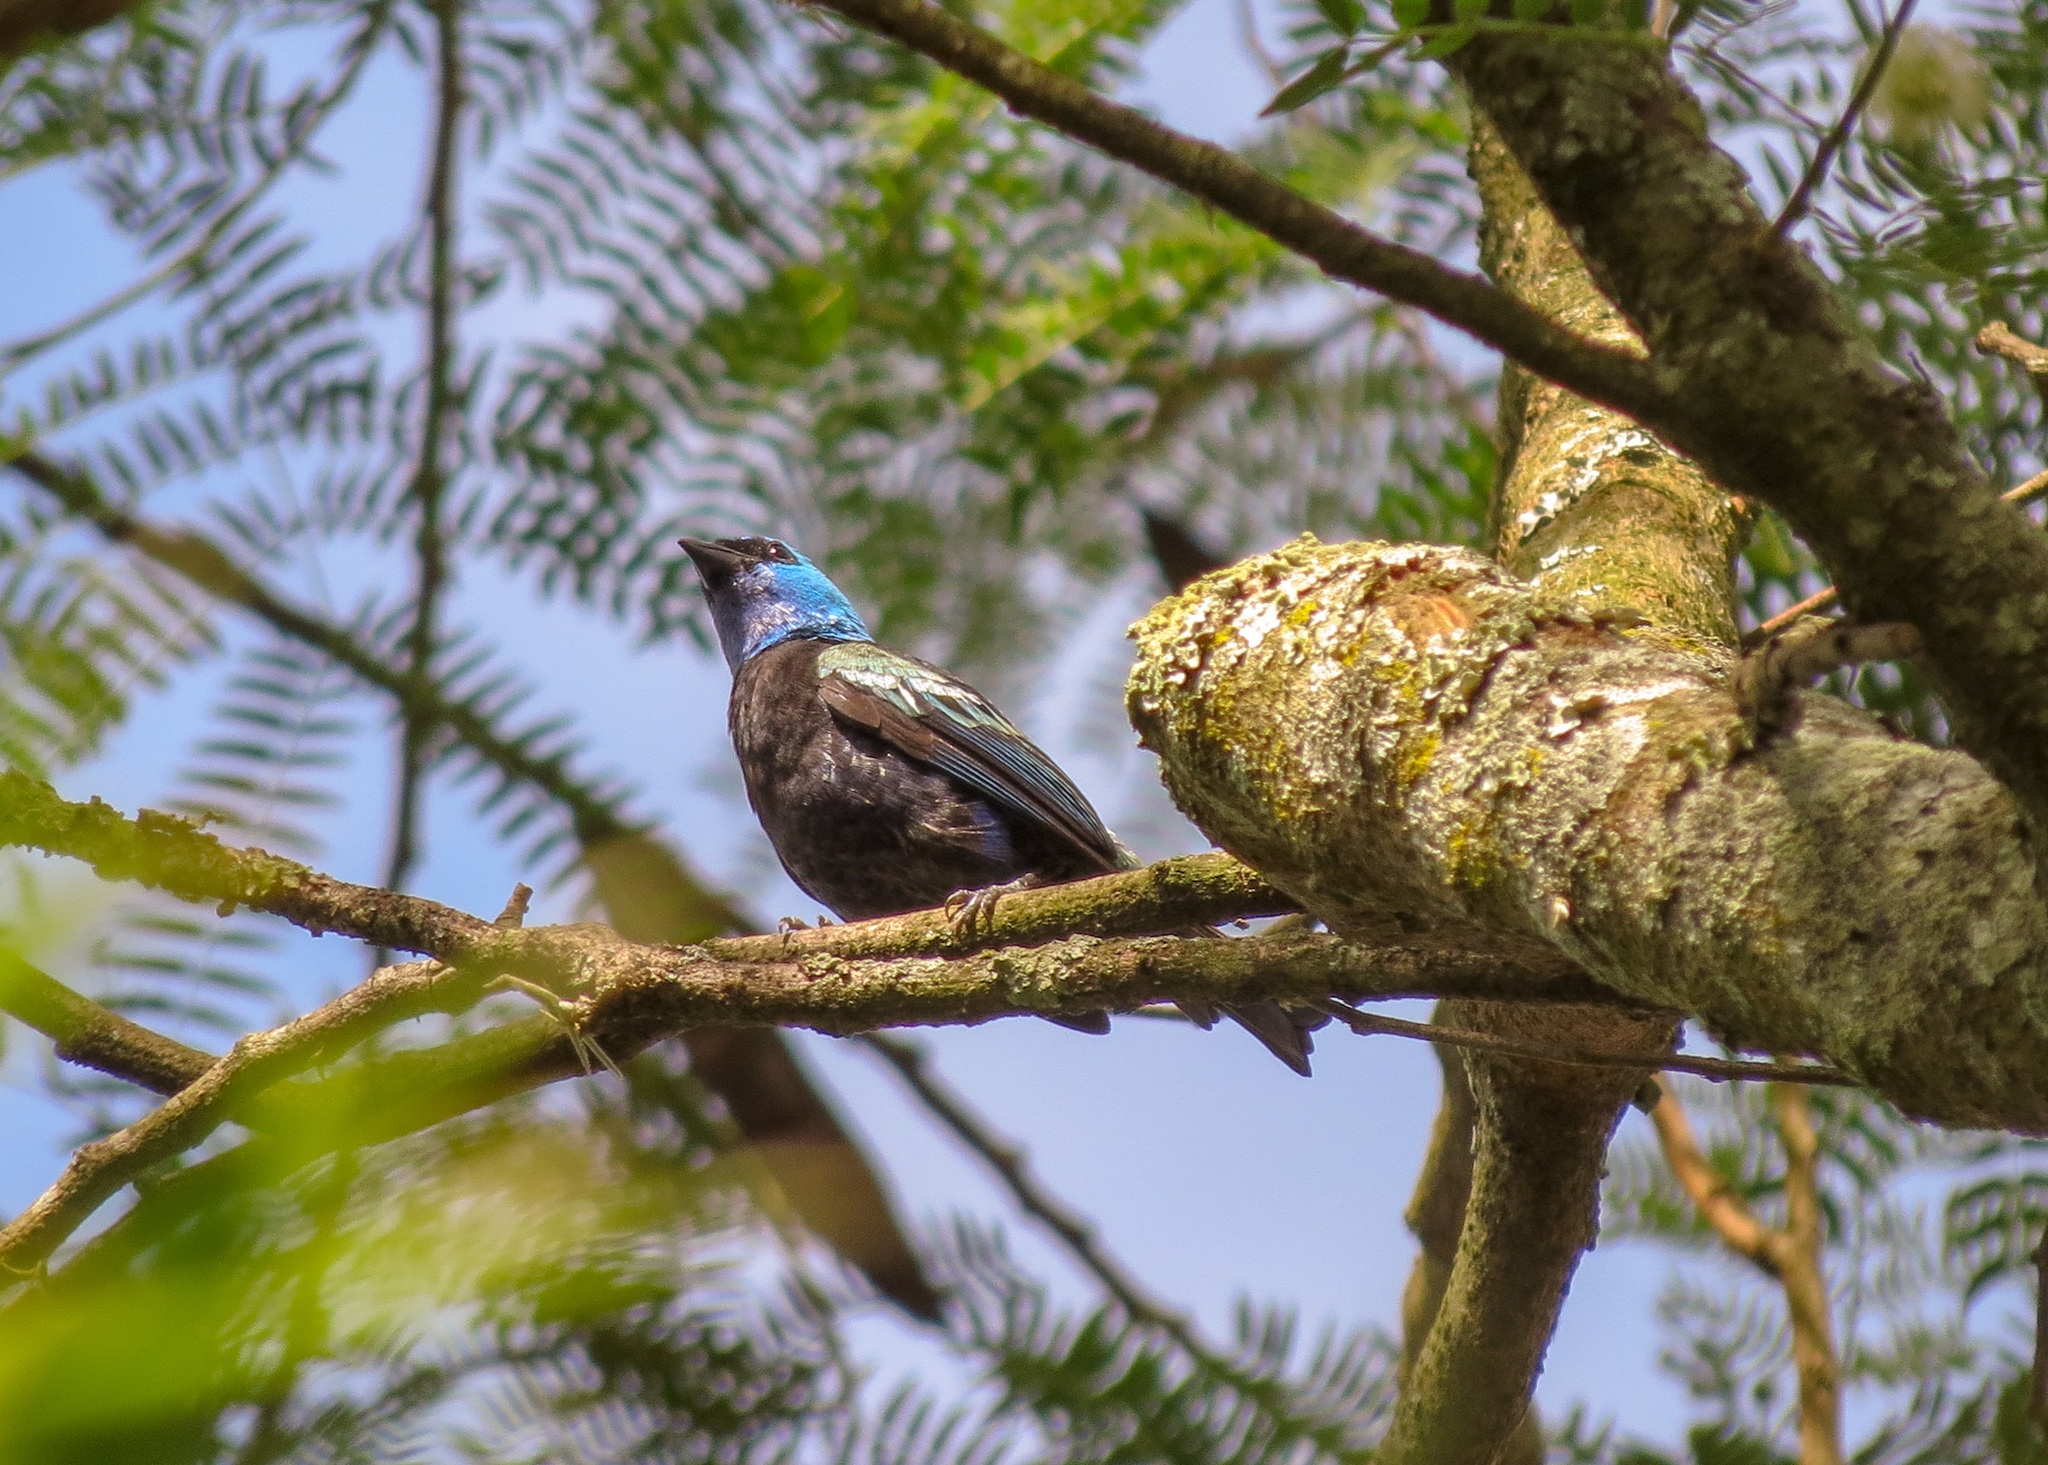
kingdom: Animalia
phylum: Chordata
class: Aves
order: Passeriformes
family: Thraupidae
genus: Stilpnia
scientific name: Stilpnia cyanicollis
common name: Blue-necked tanager
